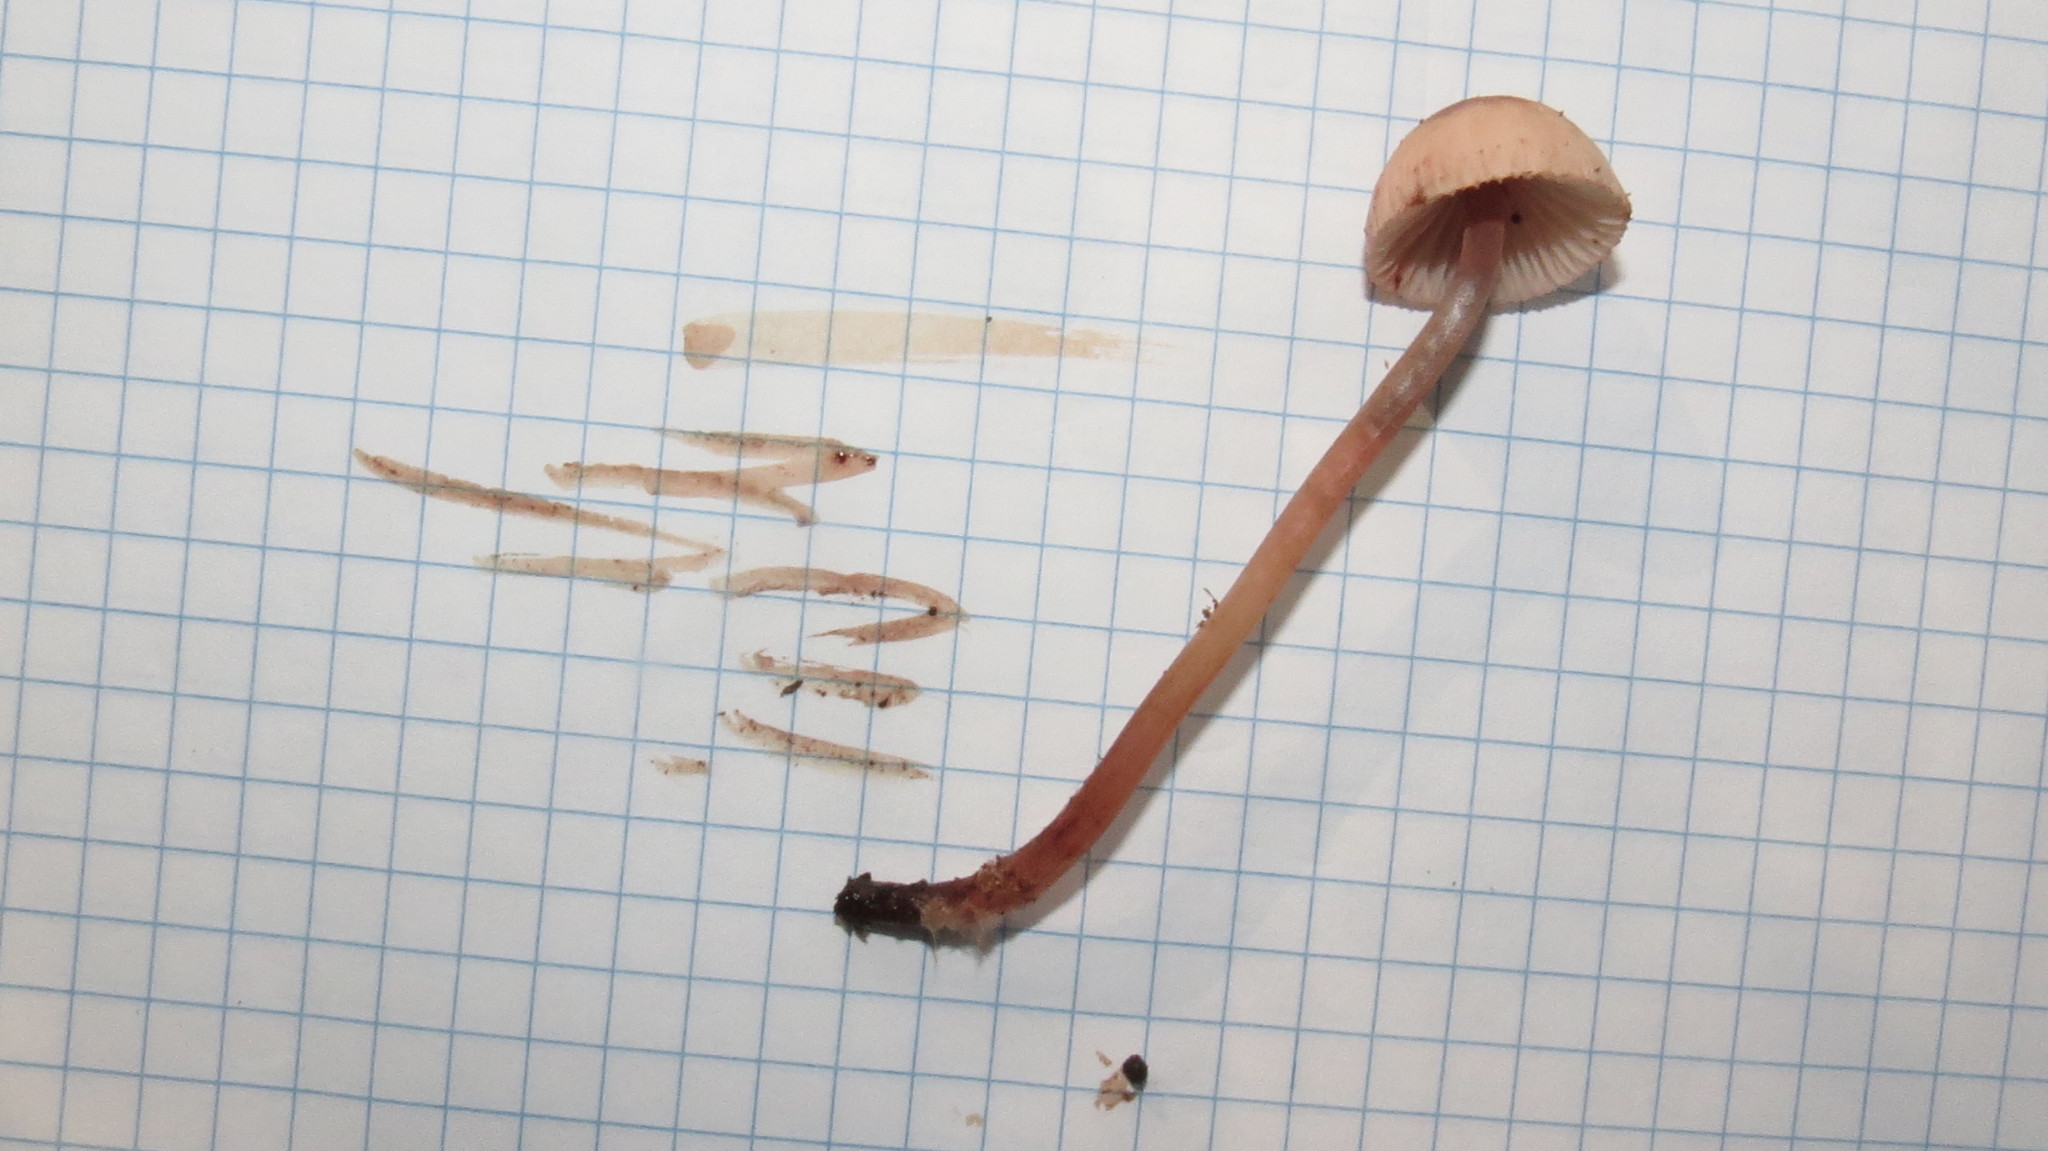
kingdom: Fungi
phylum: Basidiomycota
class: Agaricomycetes
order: Agaricales
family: Mycenaceae
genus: Mycena
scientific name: Mycena haematopus
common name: Burgundydrop bonnet
